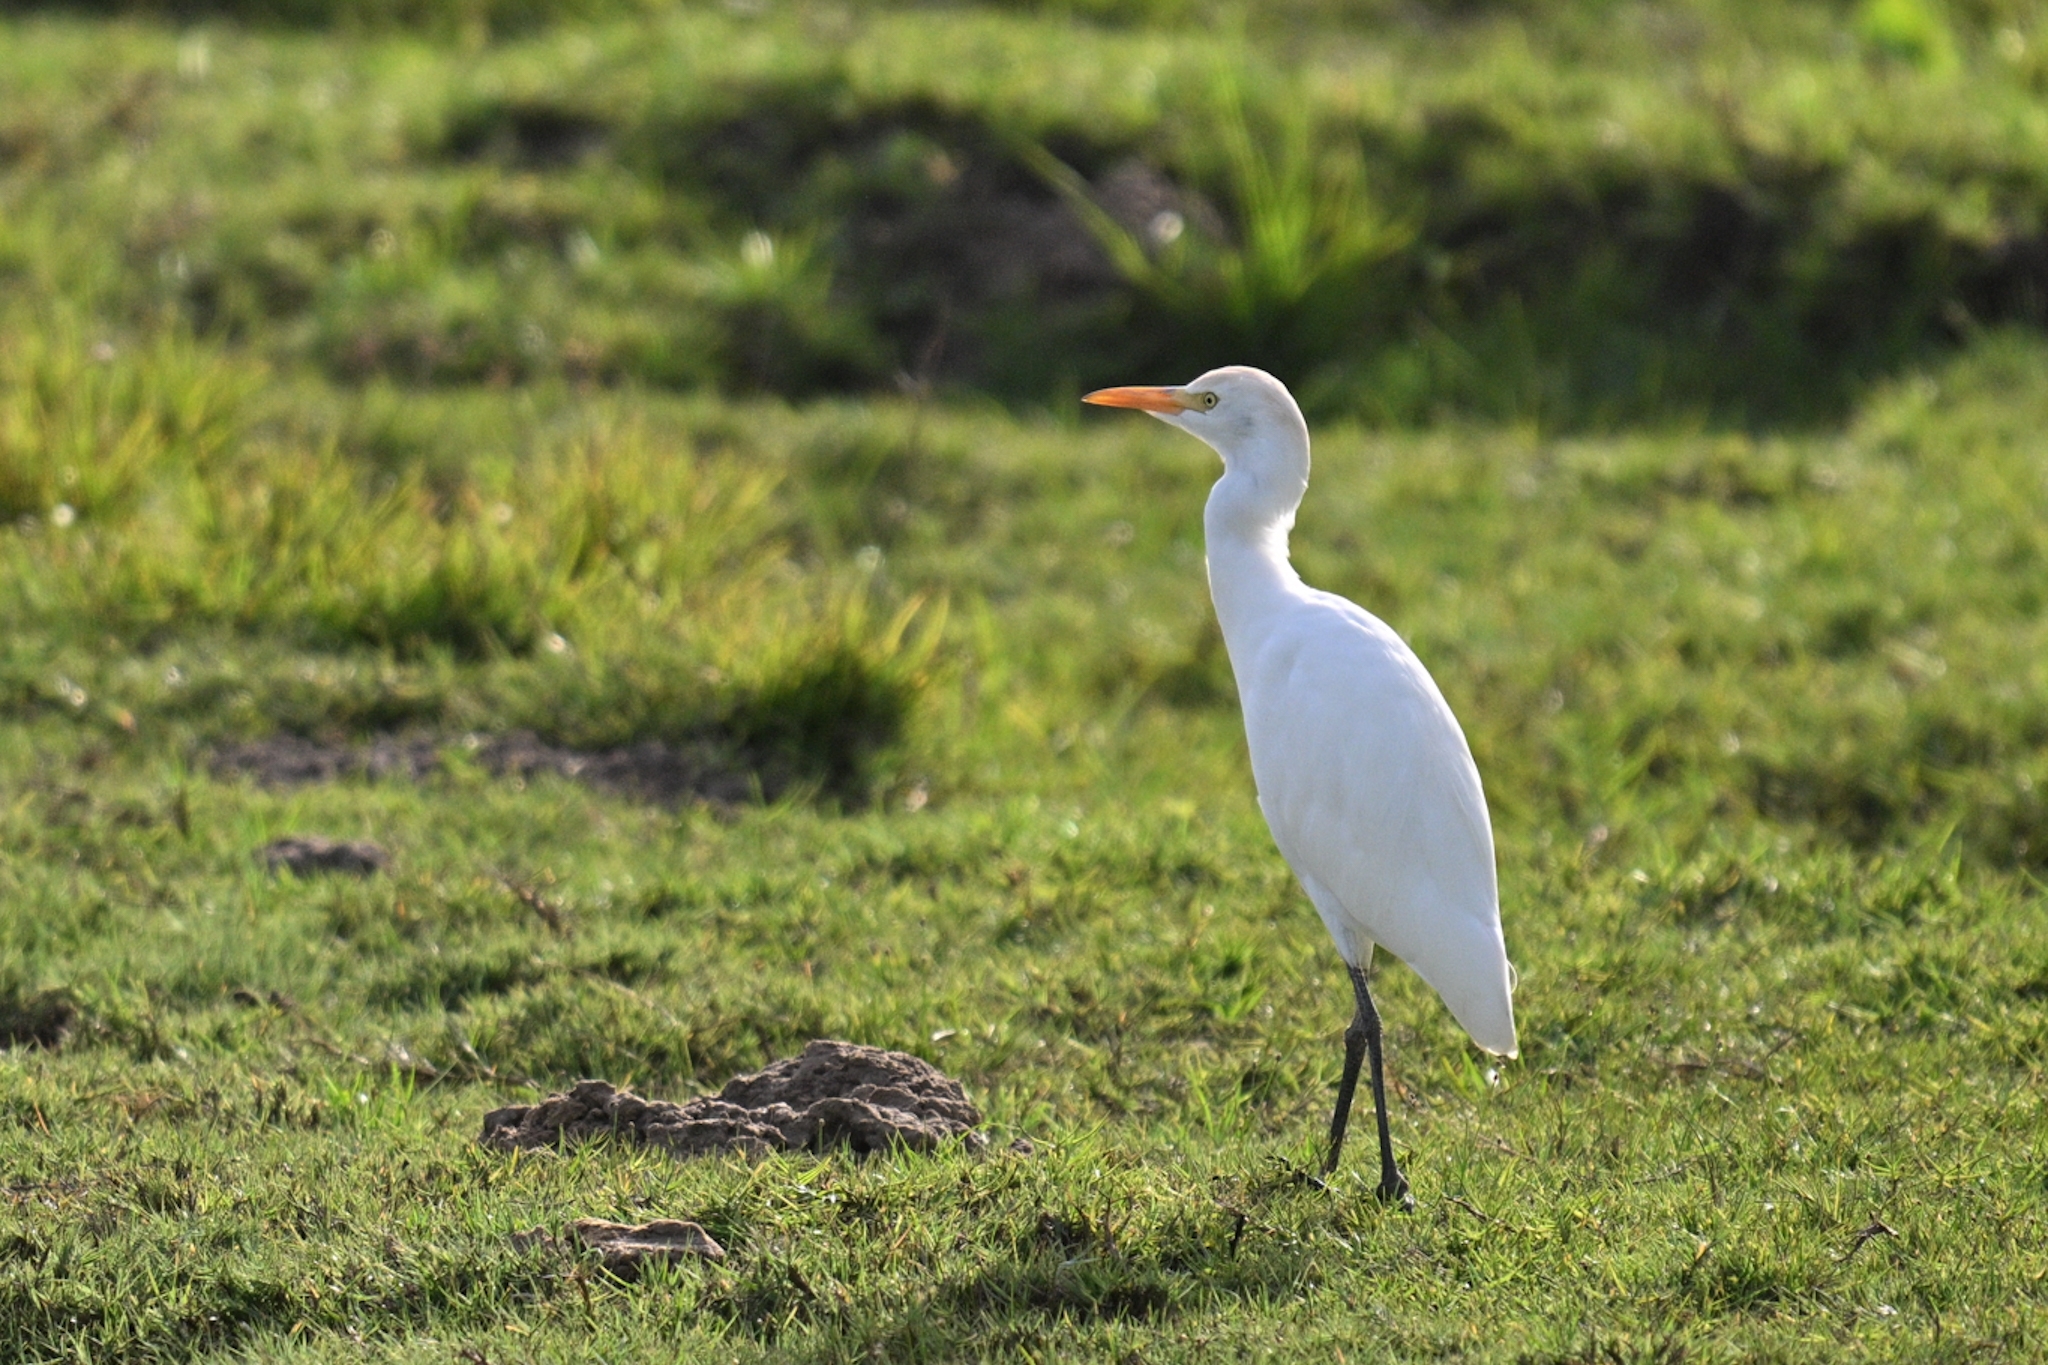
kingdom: Animalia
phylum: Chordata
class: Aves
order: Pelecaniformes
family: Ardeidae
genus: Bubulcus
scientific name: Bubulcus ibis
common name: Cattle egret
